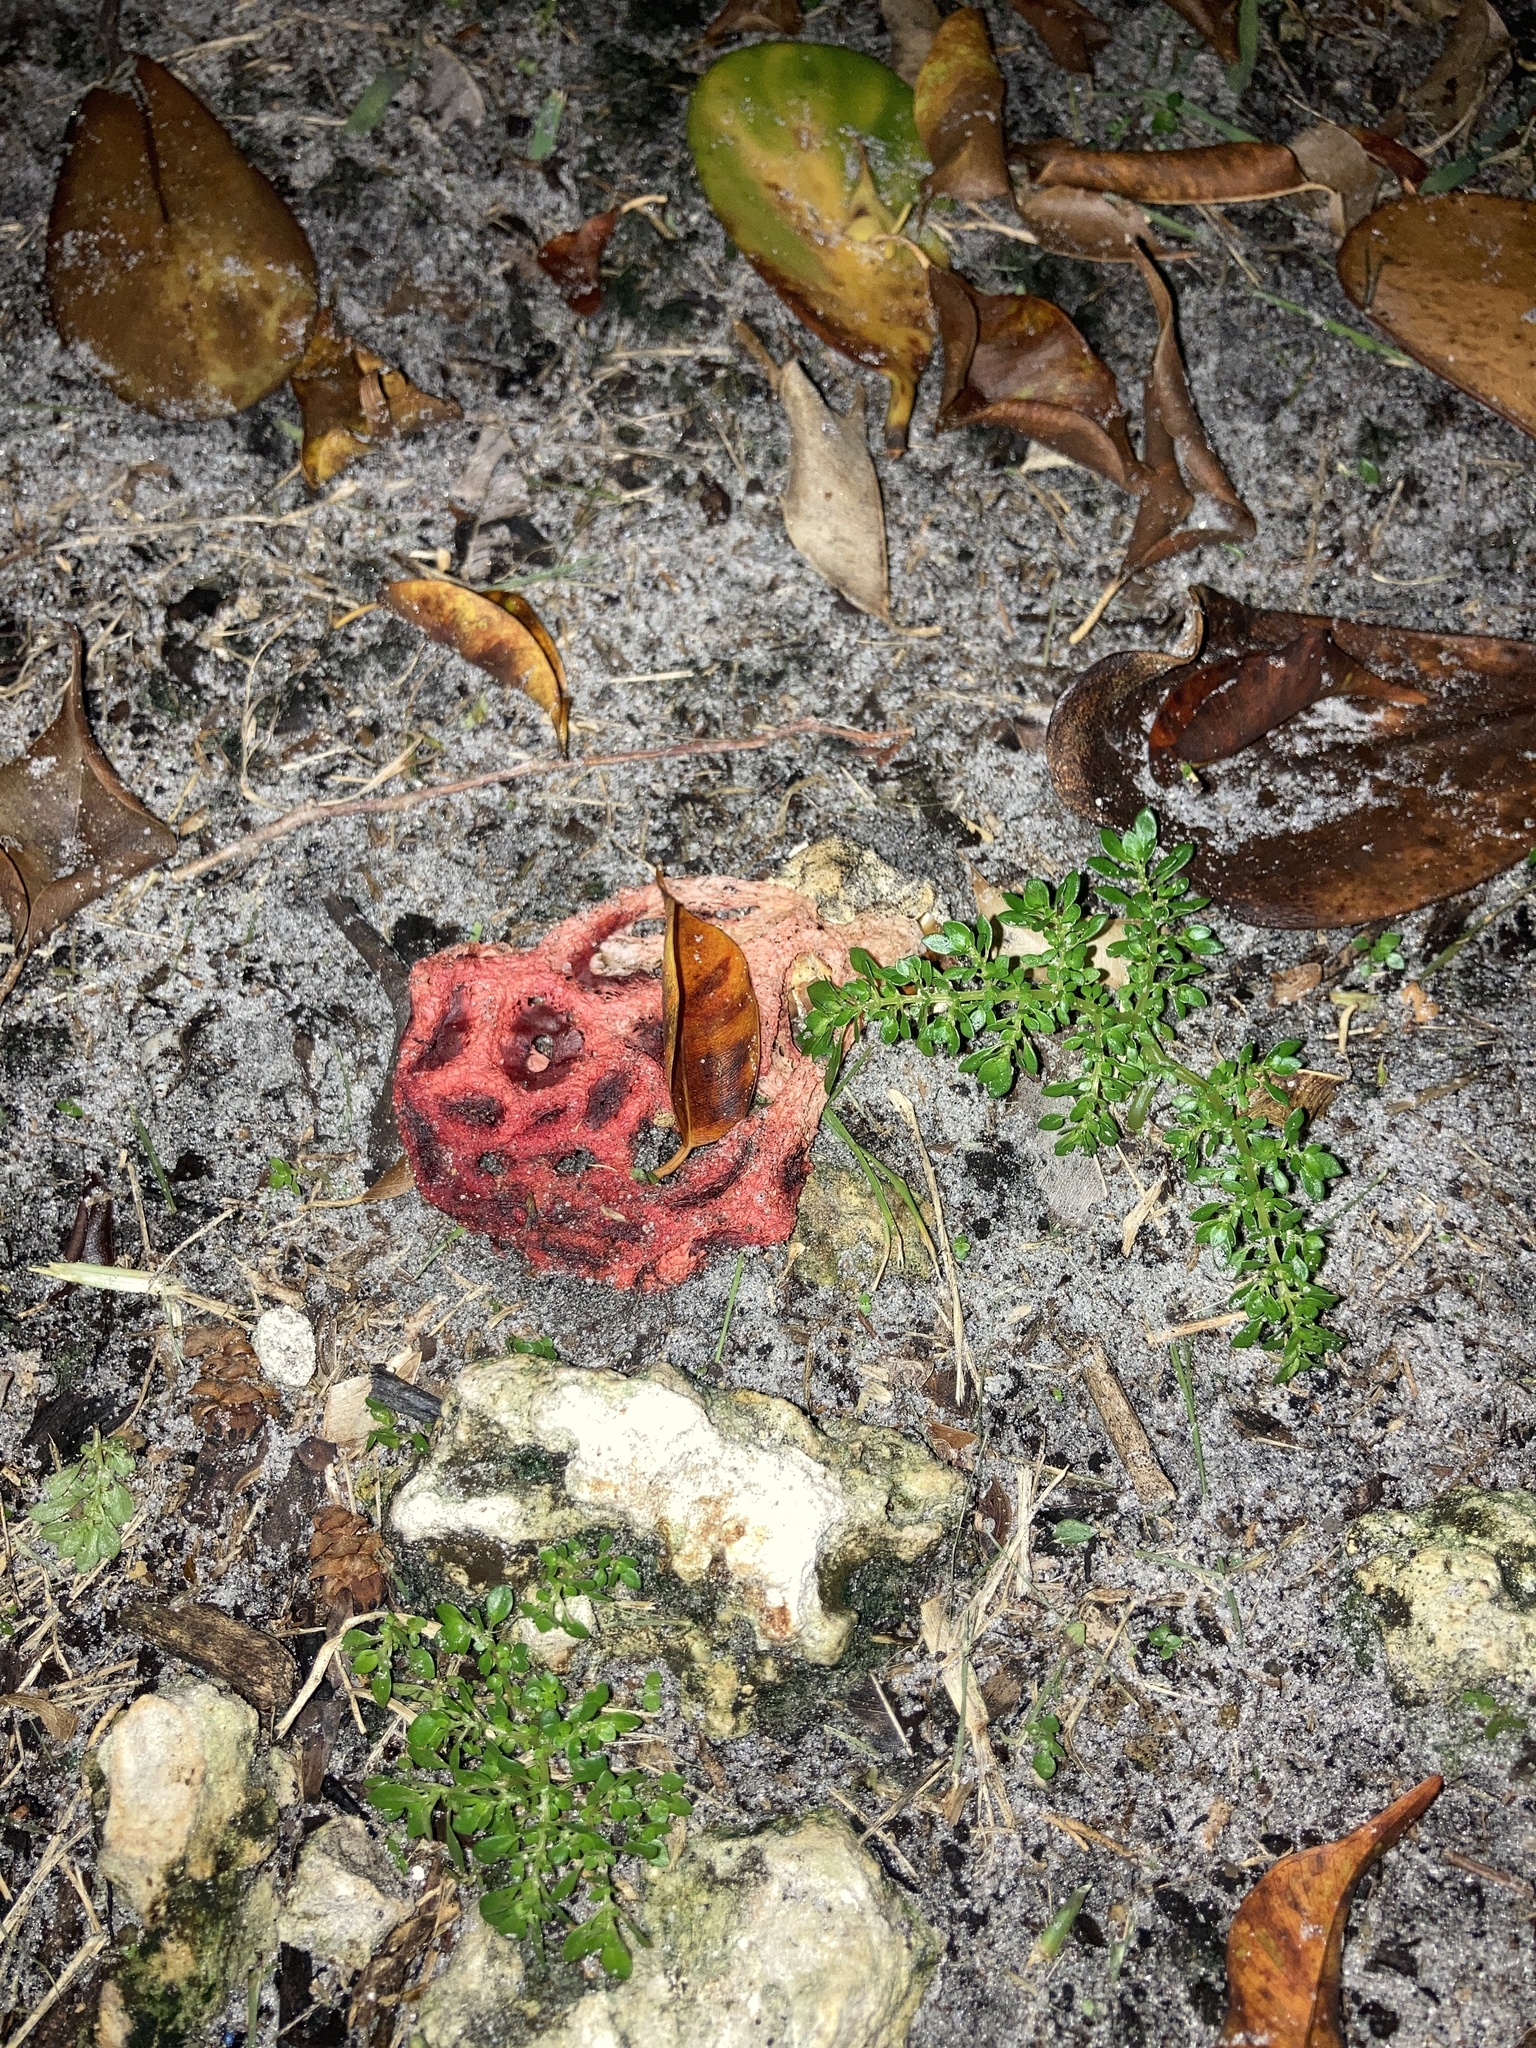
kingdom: Fungi
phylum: Basidiomycota
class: Agaricomycetes
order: Phallales
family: Phallaceae
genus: Clathrus
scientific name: Clathrus crispatus
